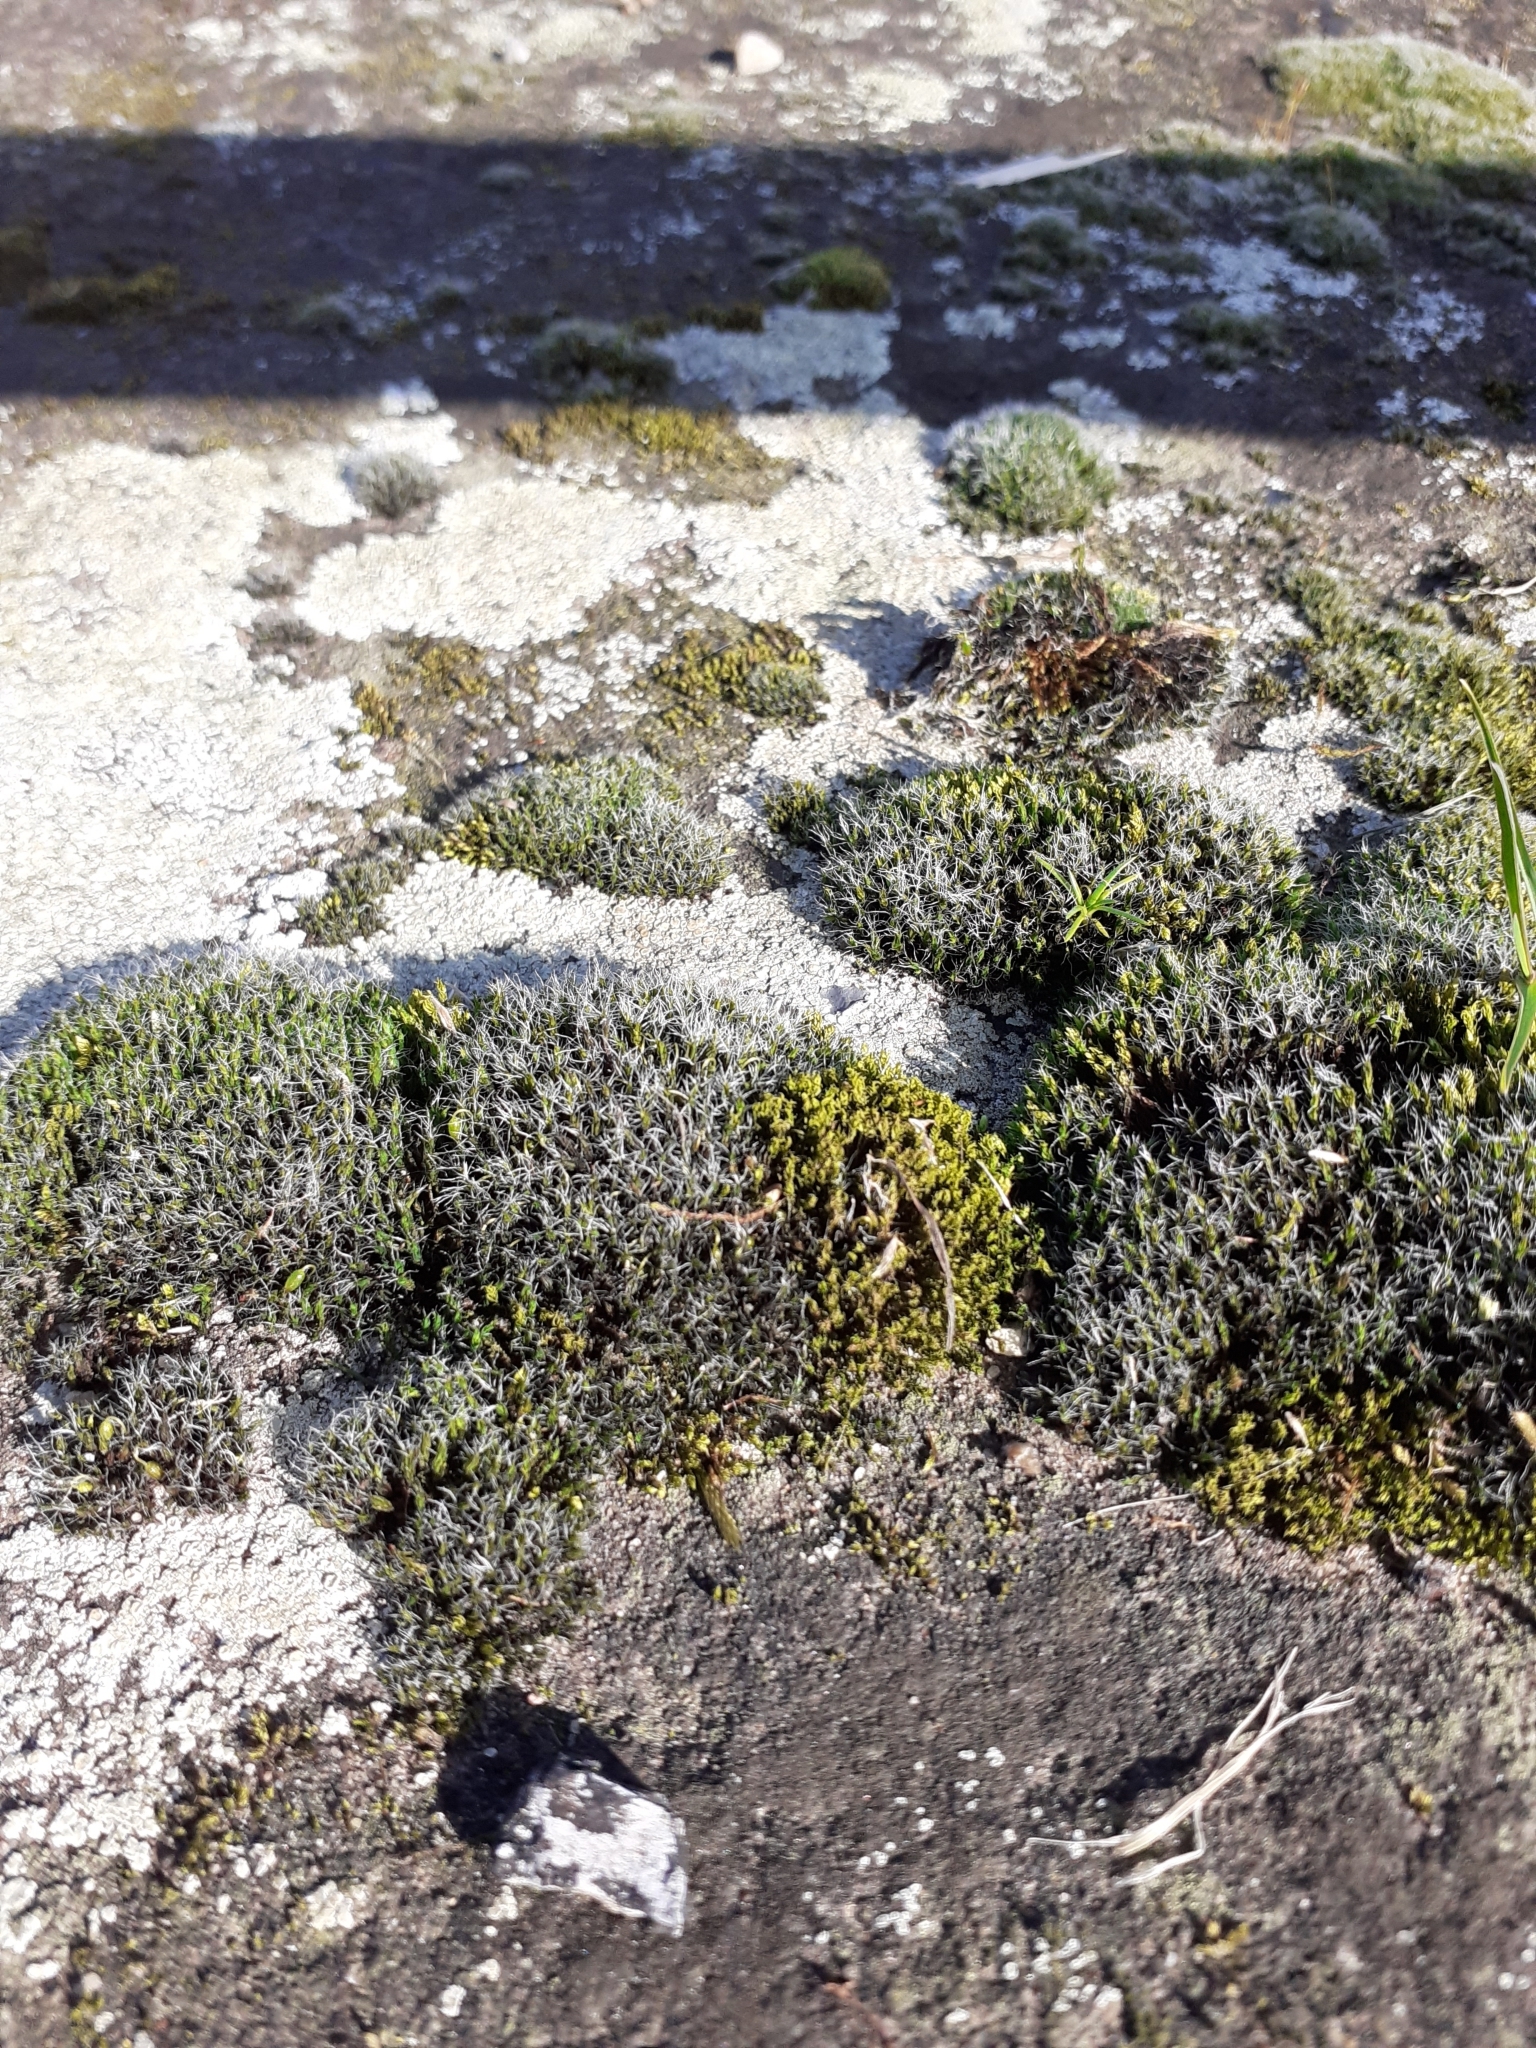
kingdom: Plantae
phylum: Bryophyta
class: Bryopsida
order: Grimmiales
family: Grimmiaceae
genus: Grimmia
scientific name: Grimmia pulvinata
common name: Grey-cushioned grimmia
